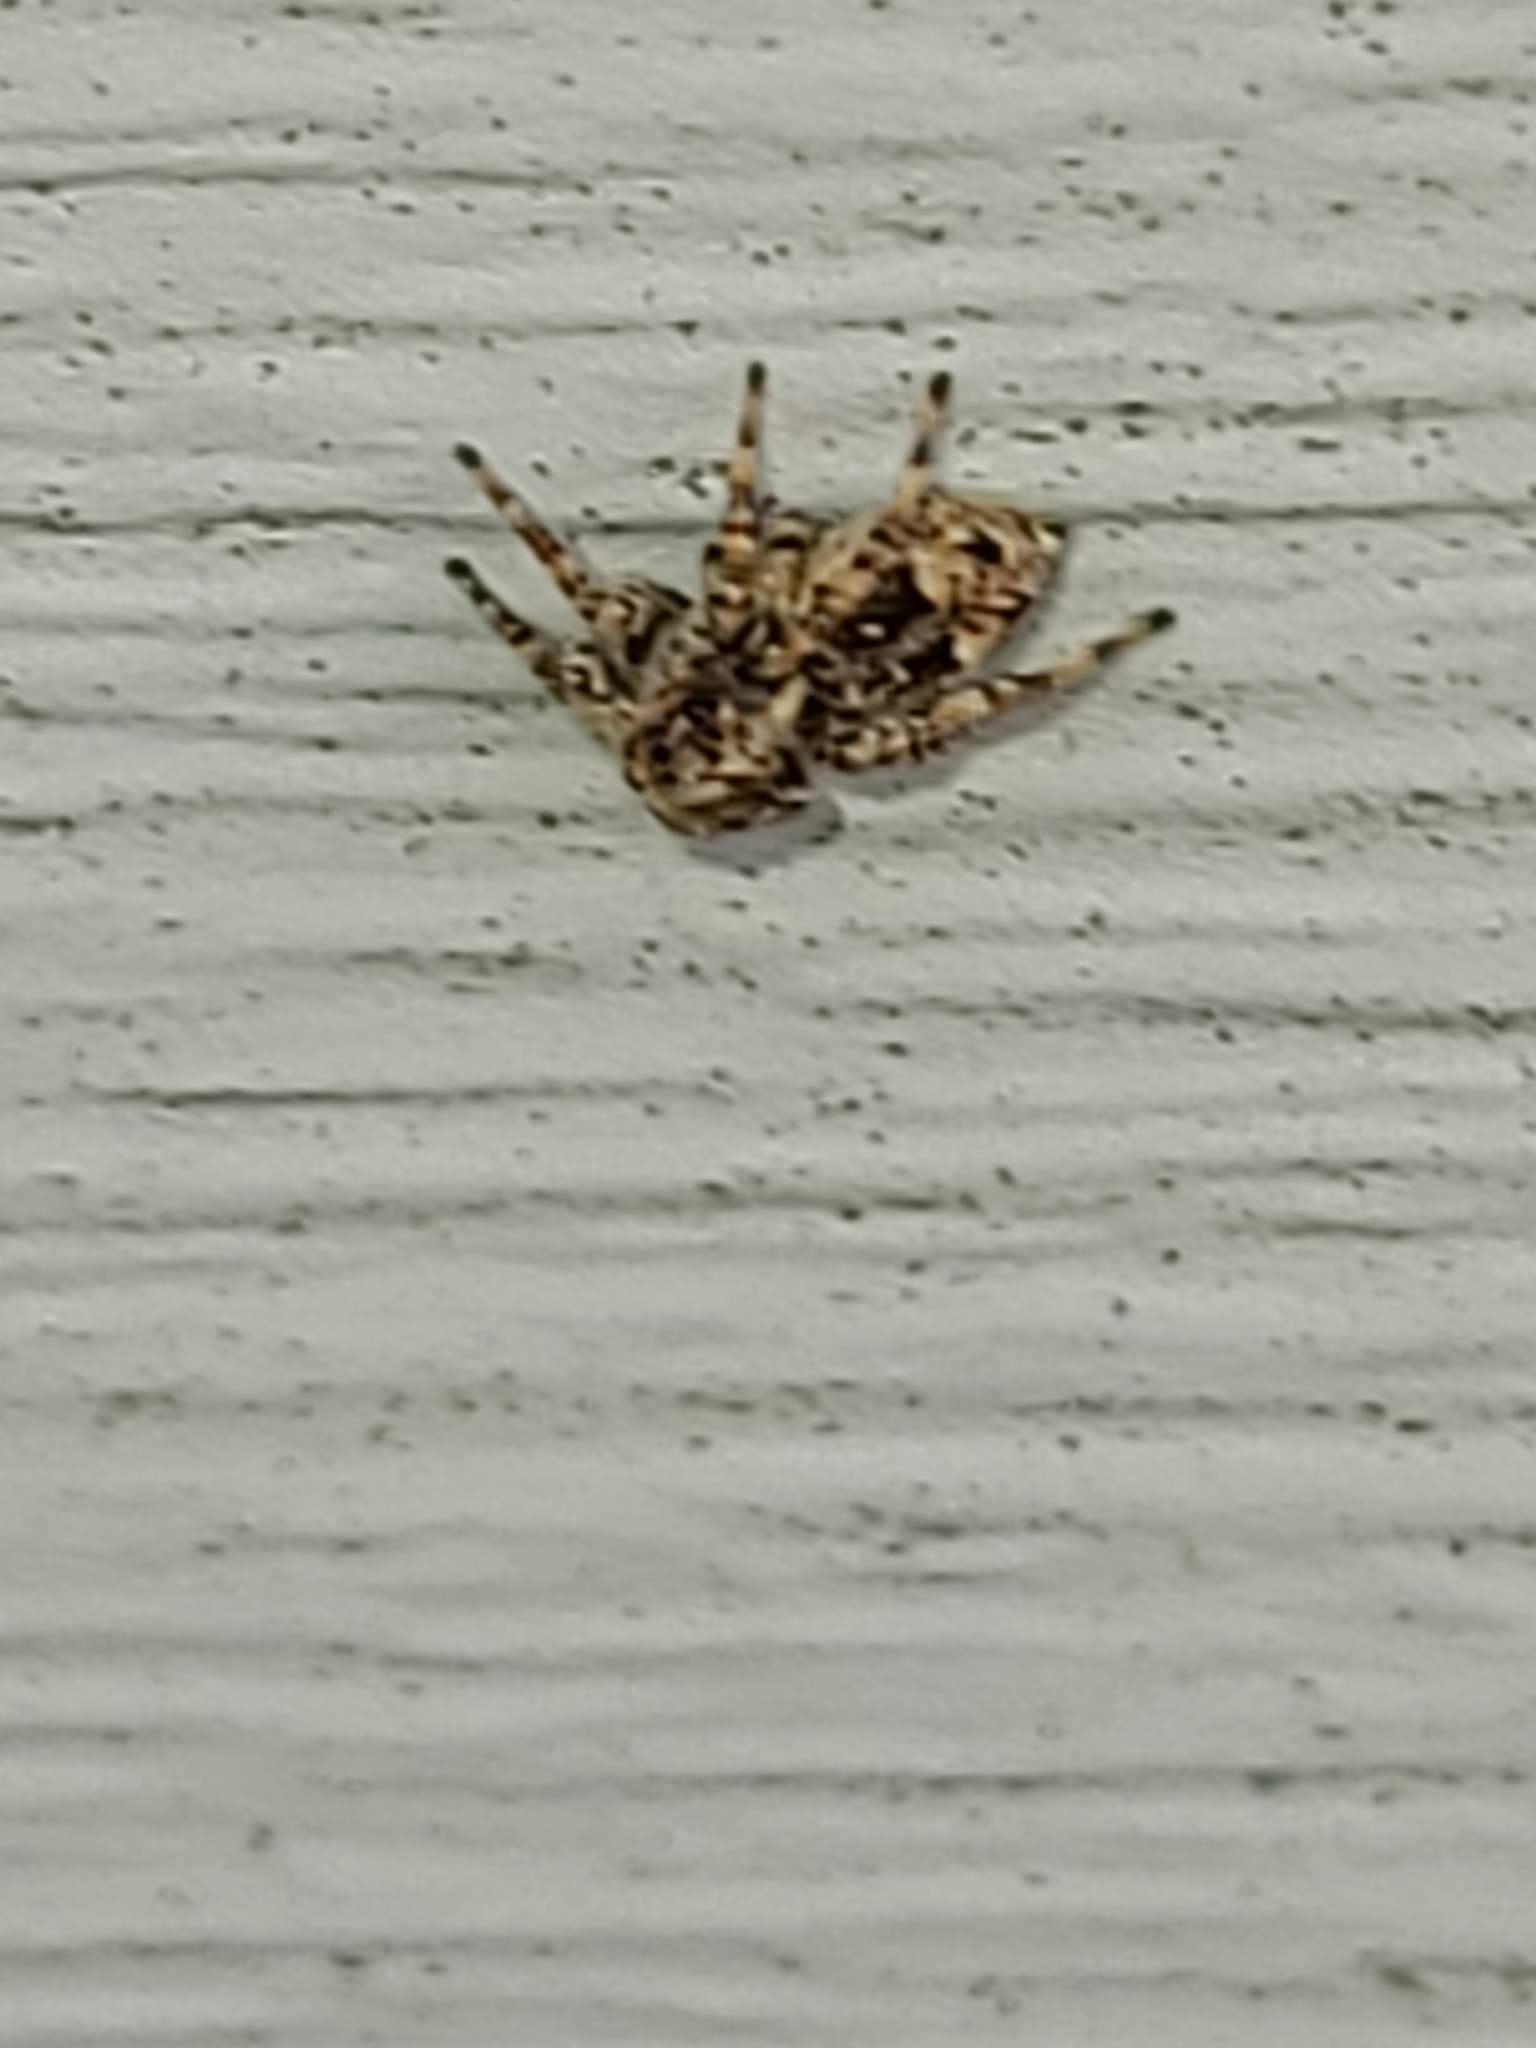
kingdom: Animalia
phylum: Arthropoda
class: Arachnida
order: Araneae
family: Salticidae
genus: Attulus
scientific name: Attulus fasciger
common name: Asiatic wall jumping spider
